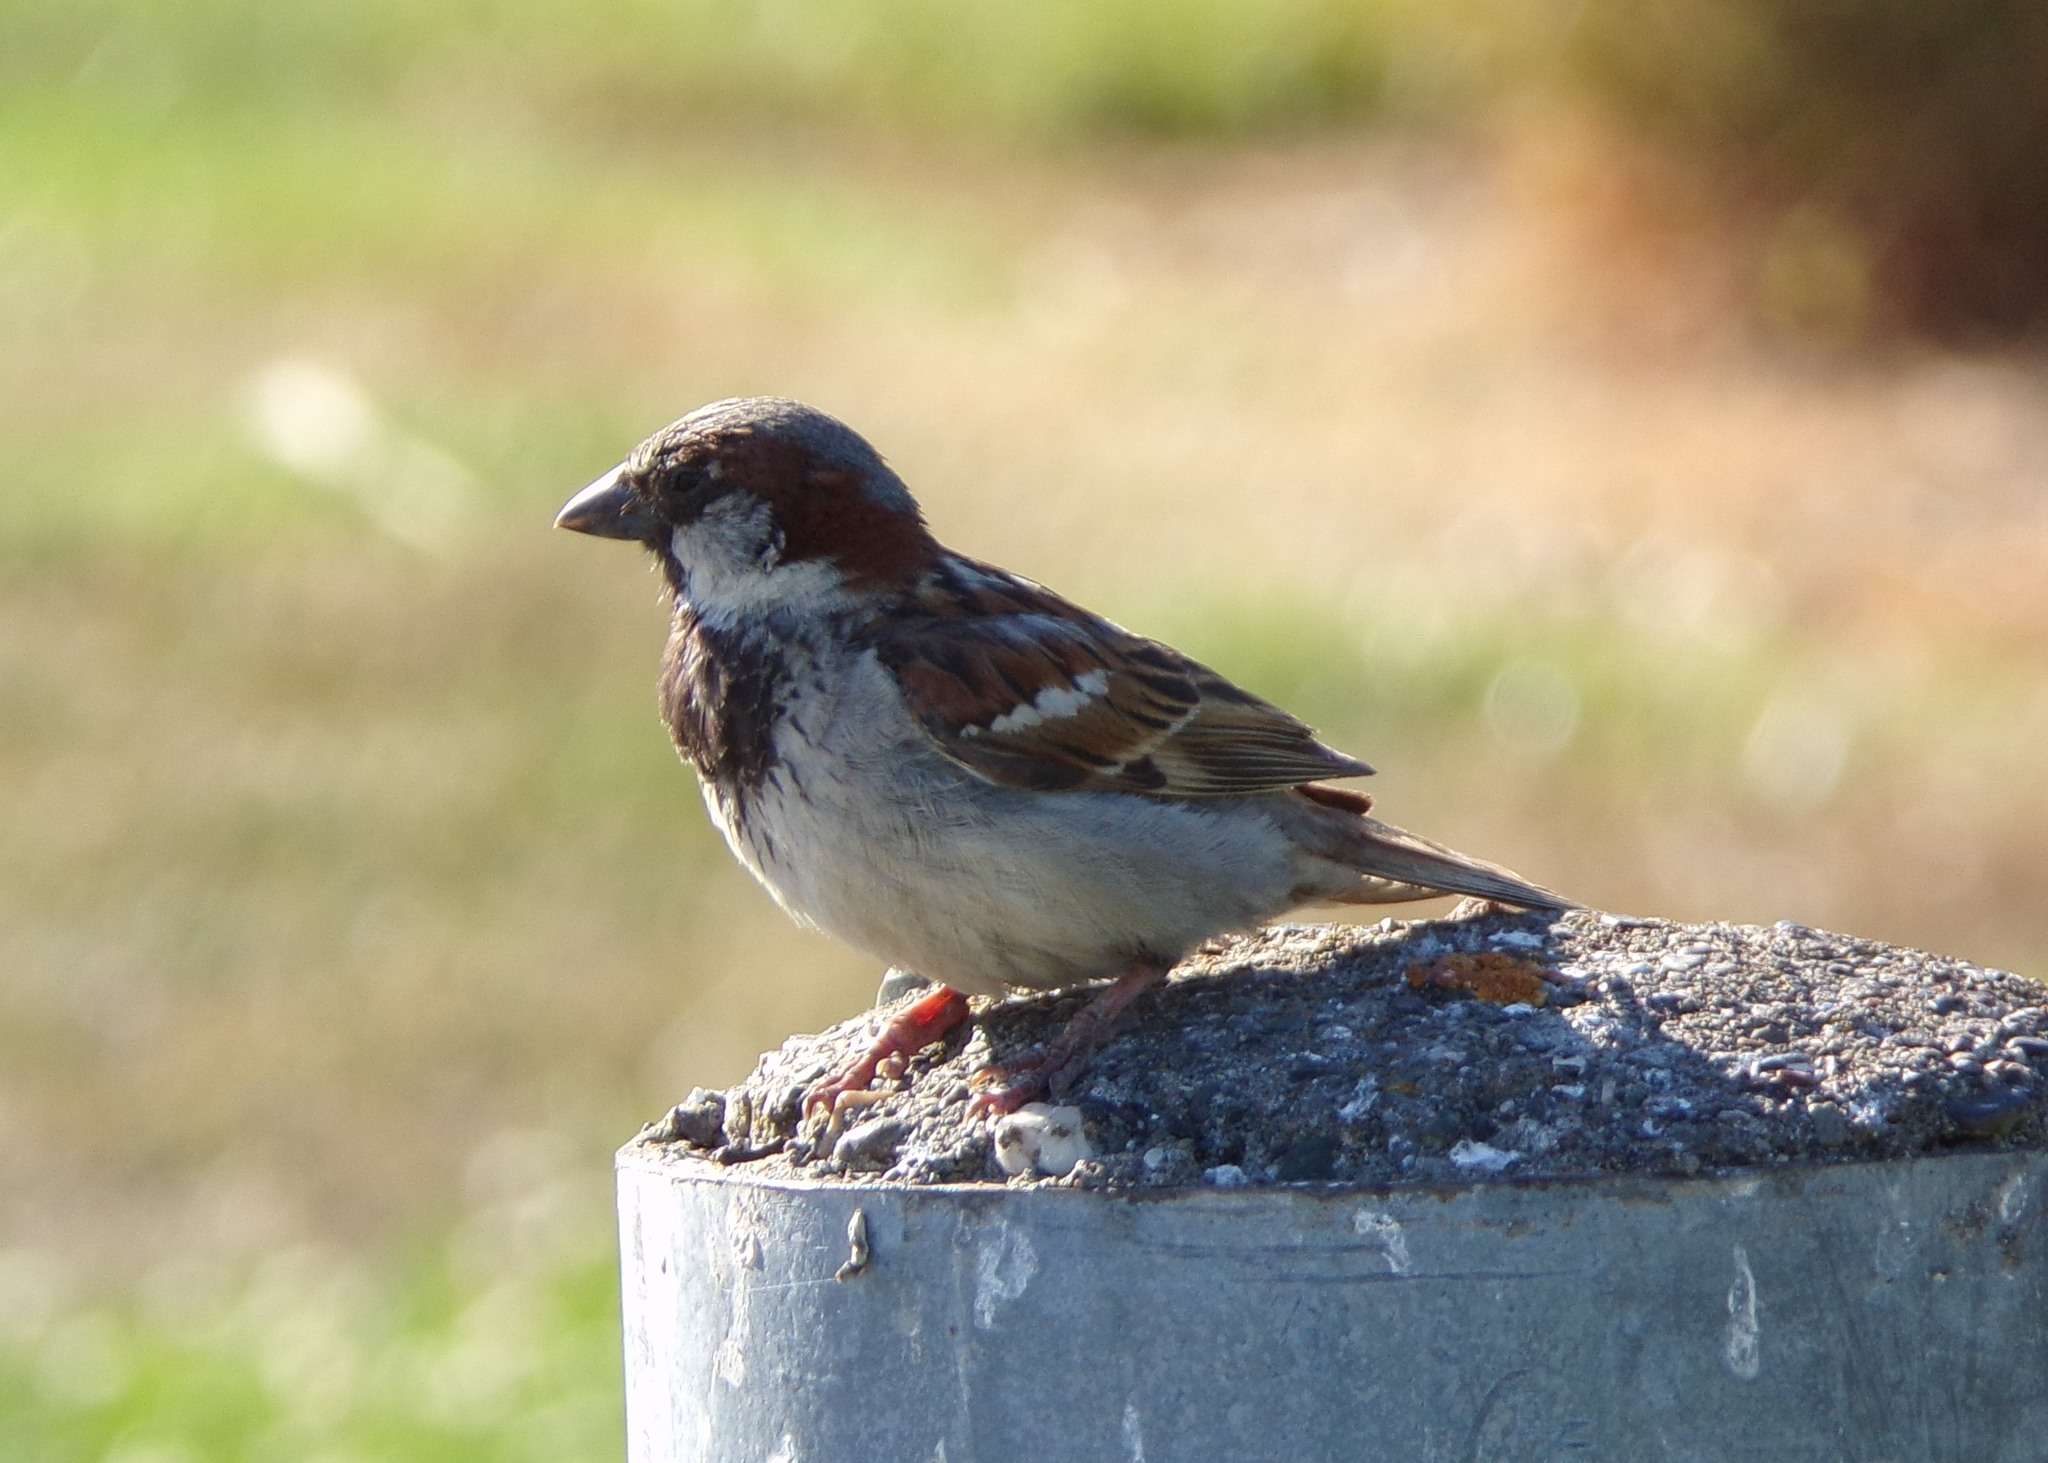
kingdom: Animalia
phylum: Chordata
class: Aves
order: Passeriformes
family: Passeridae
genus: Passer
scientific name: Passer domesticus
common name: House sparrow
